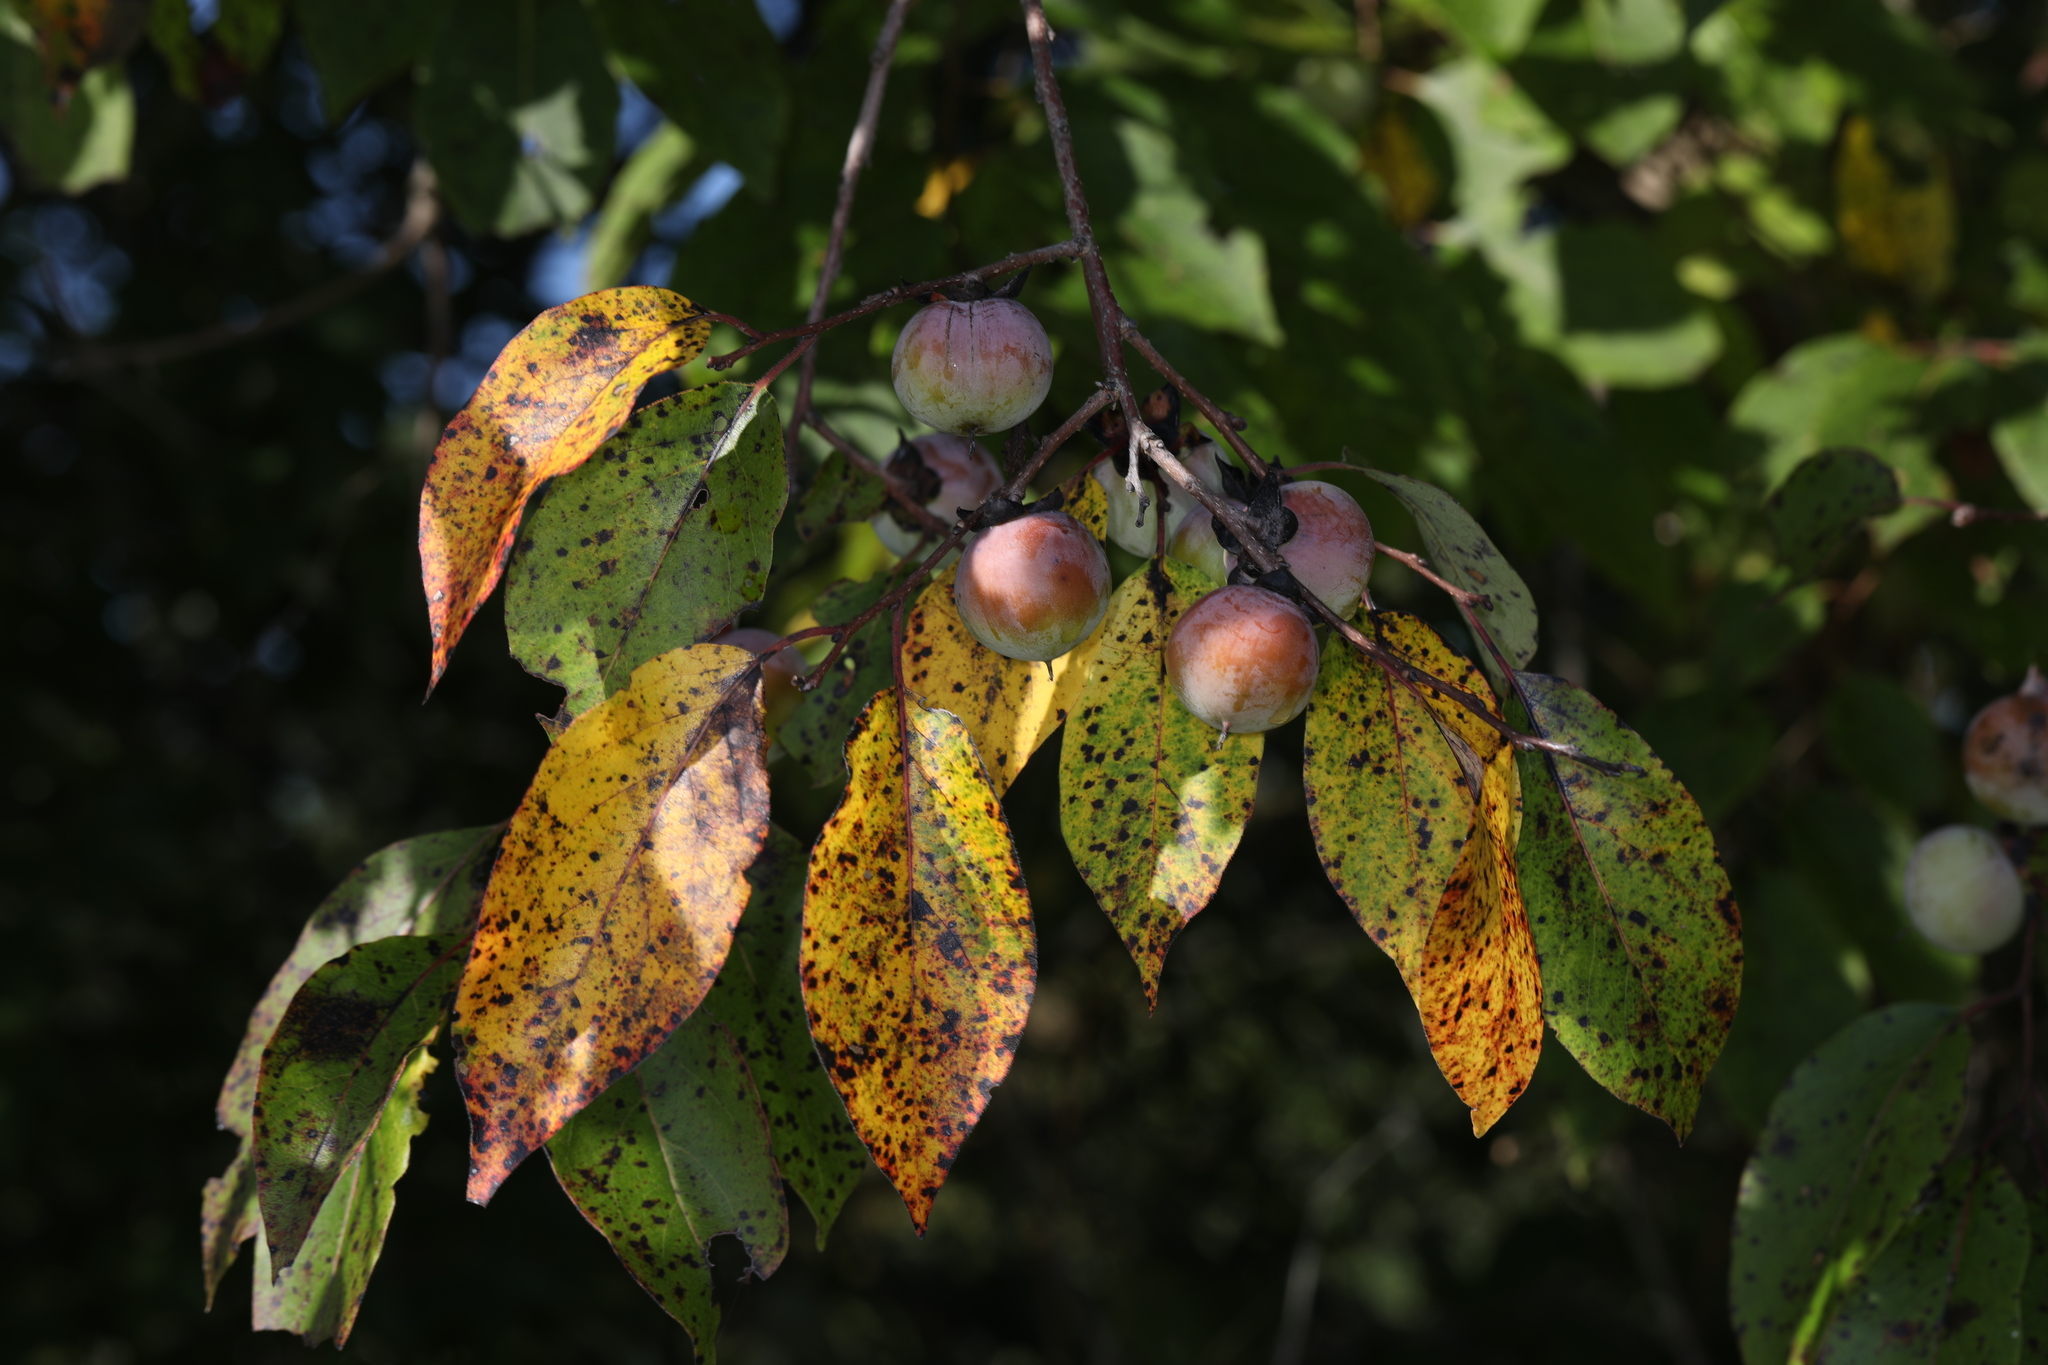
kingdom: Plantae
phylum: Tracheophyta
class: Magnoliopsida
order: Ericales
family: Ebenaceae
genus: Diospyros
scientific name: Diospyros virginiana
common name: Persimmon
